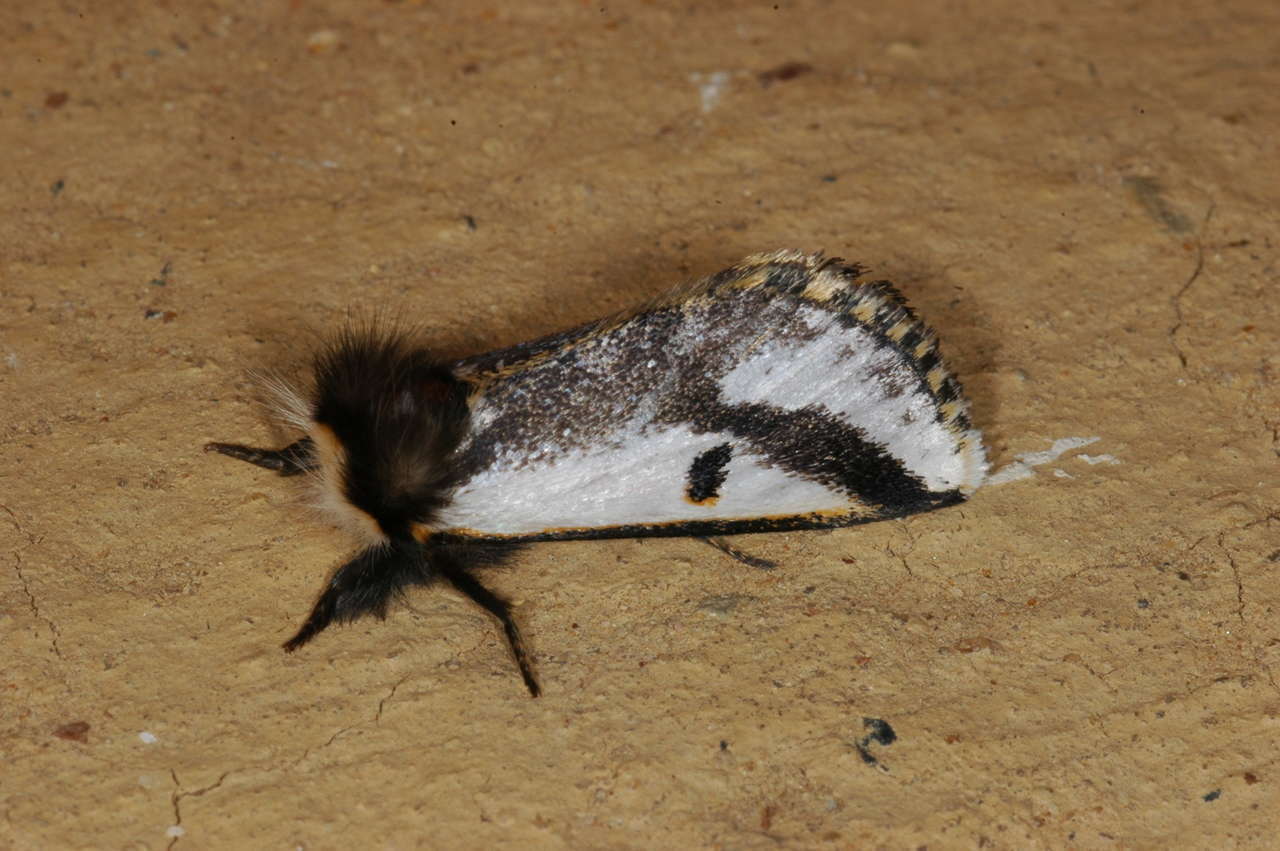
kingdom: Animalia
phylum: Arthropoda
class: Insecta
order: Lepidoptera
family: Notodontidae
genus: Epicoma
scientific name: Epicoma melanospila
